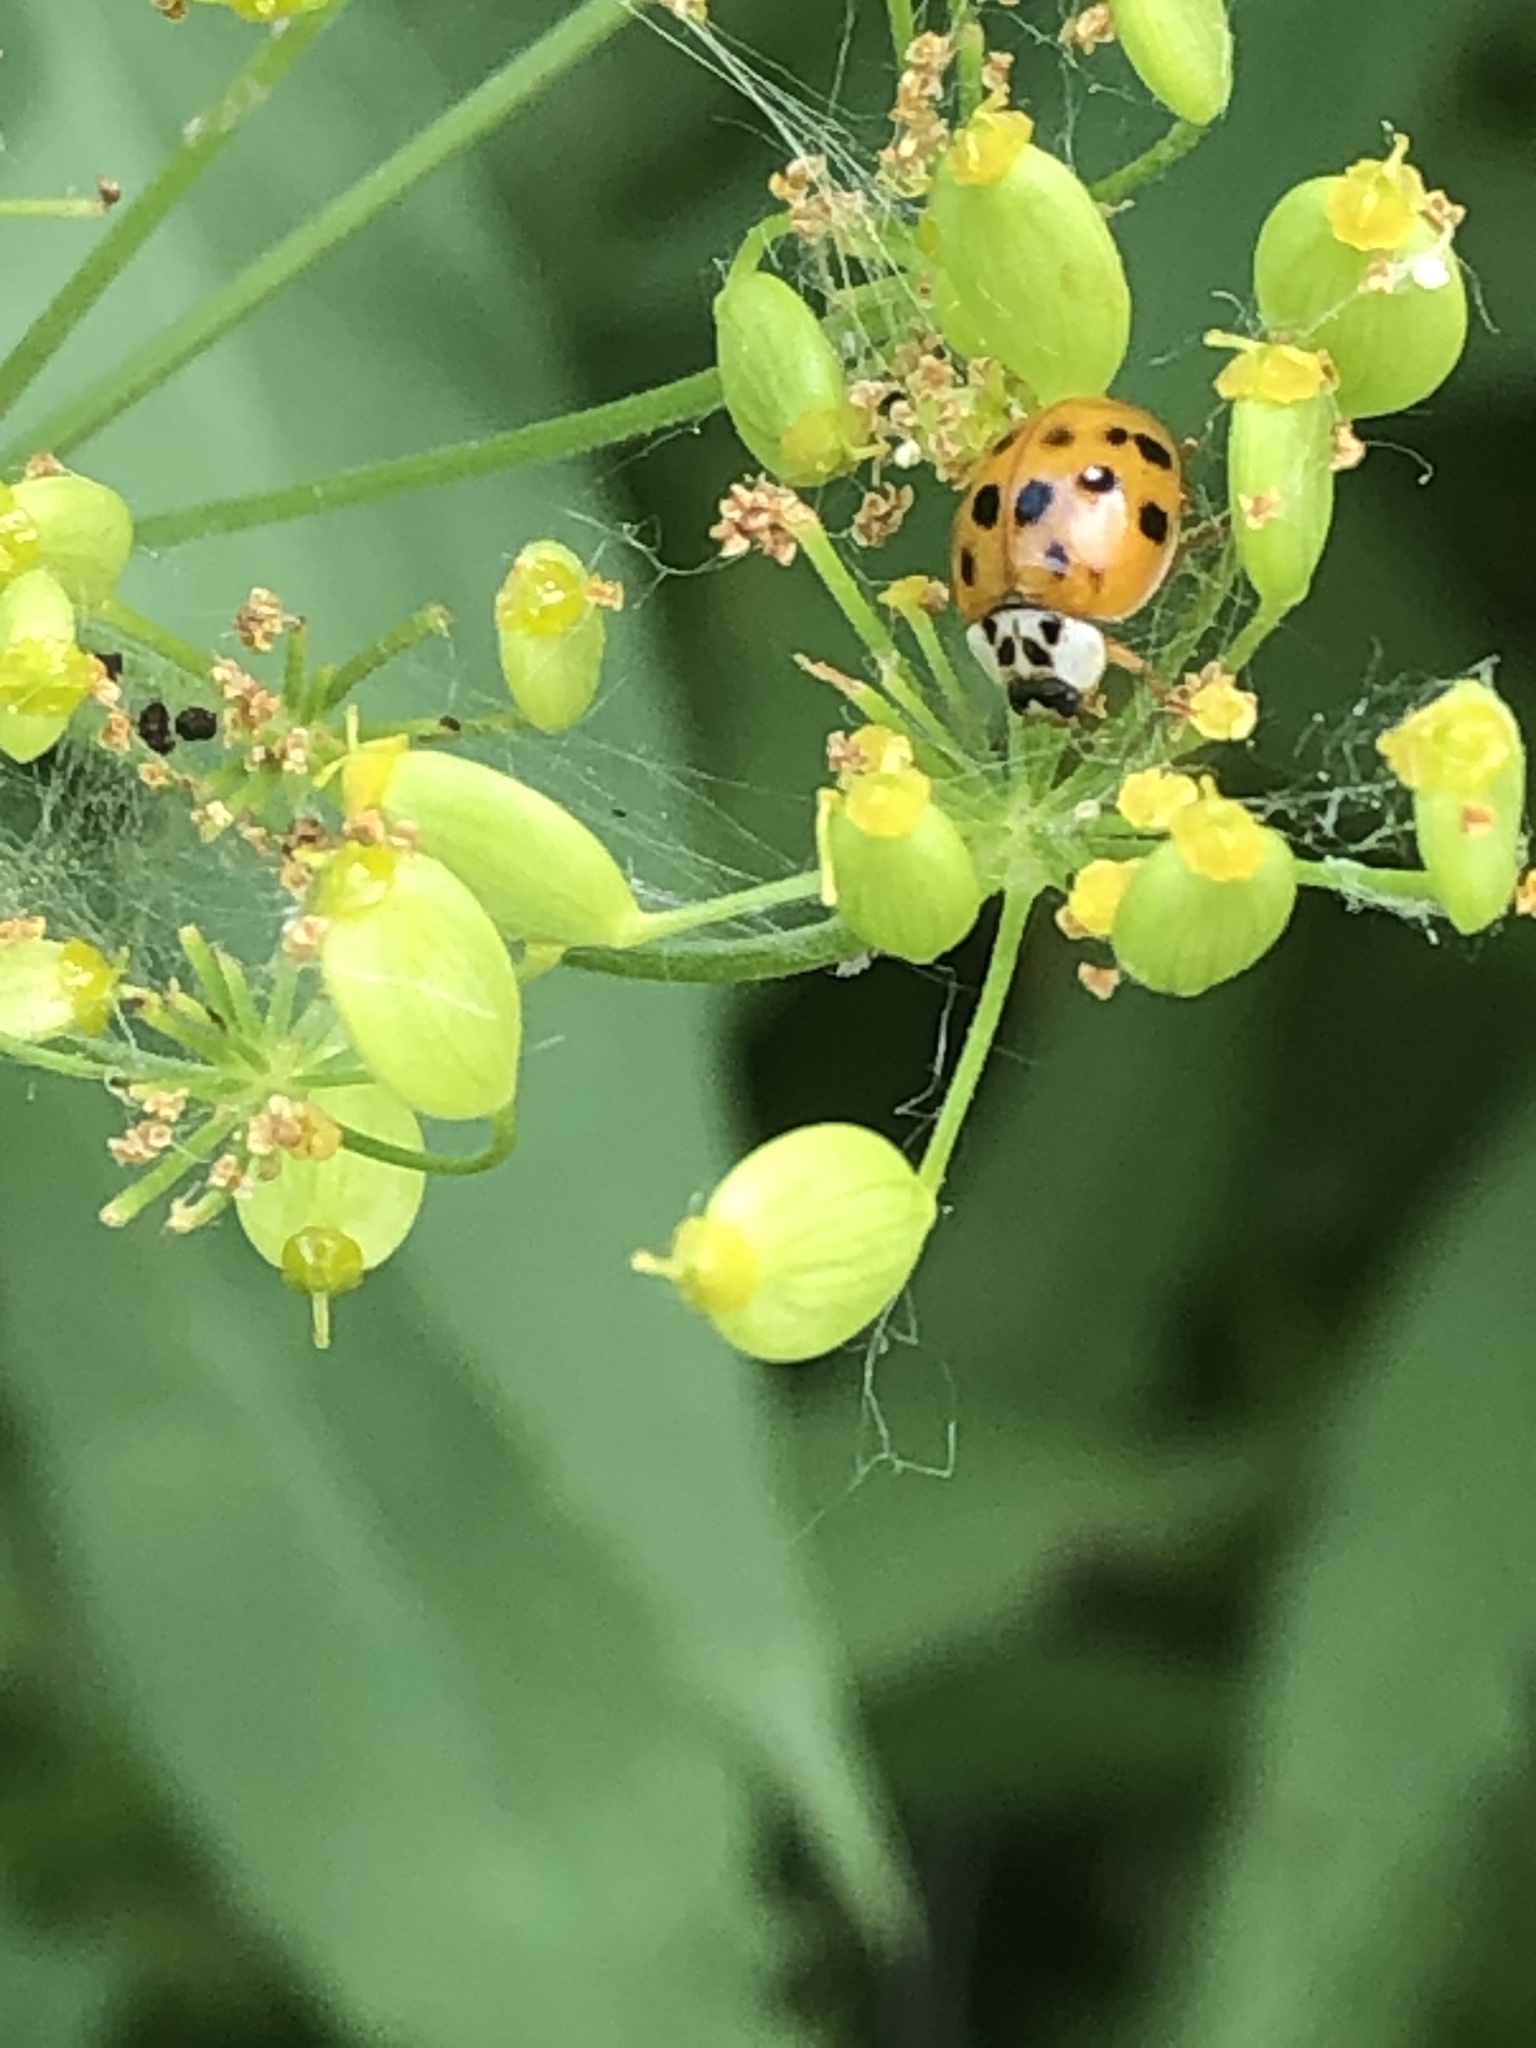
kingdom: Animalia
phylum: Arthropoda
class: Insecta
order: Coleoptera
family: Coccinellidae
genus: Harmonia
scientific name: Harmonia axyridis
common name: Harlequin ladybird
